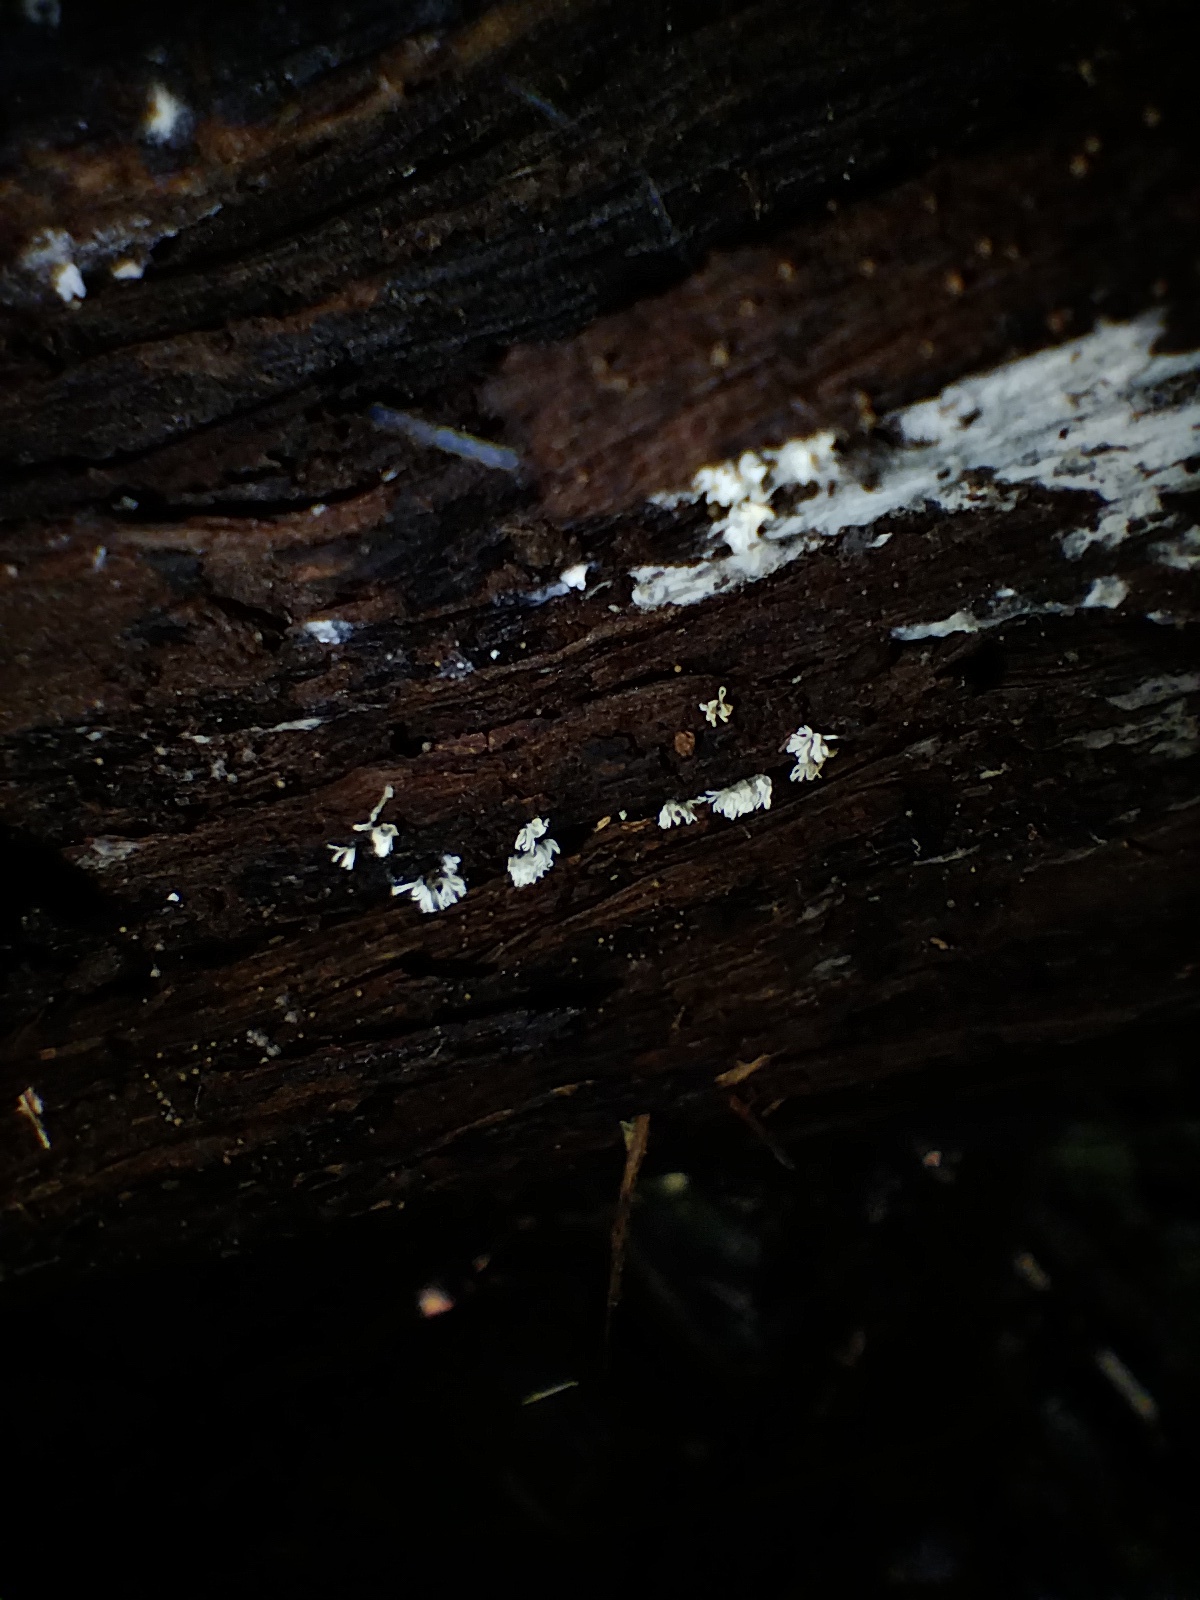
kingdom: Protozoa
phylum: Mycetozoa
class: Protosteliomycetes
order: Ceratiomyxales
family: Ceratiomyxaceae
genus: Ceratiomyxa
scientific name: Ceratiomyxa fruticulosa
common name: Honeycomb coral slime mold
